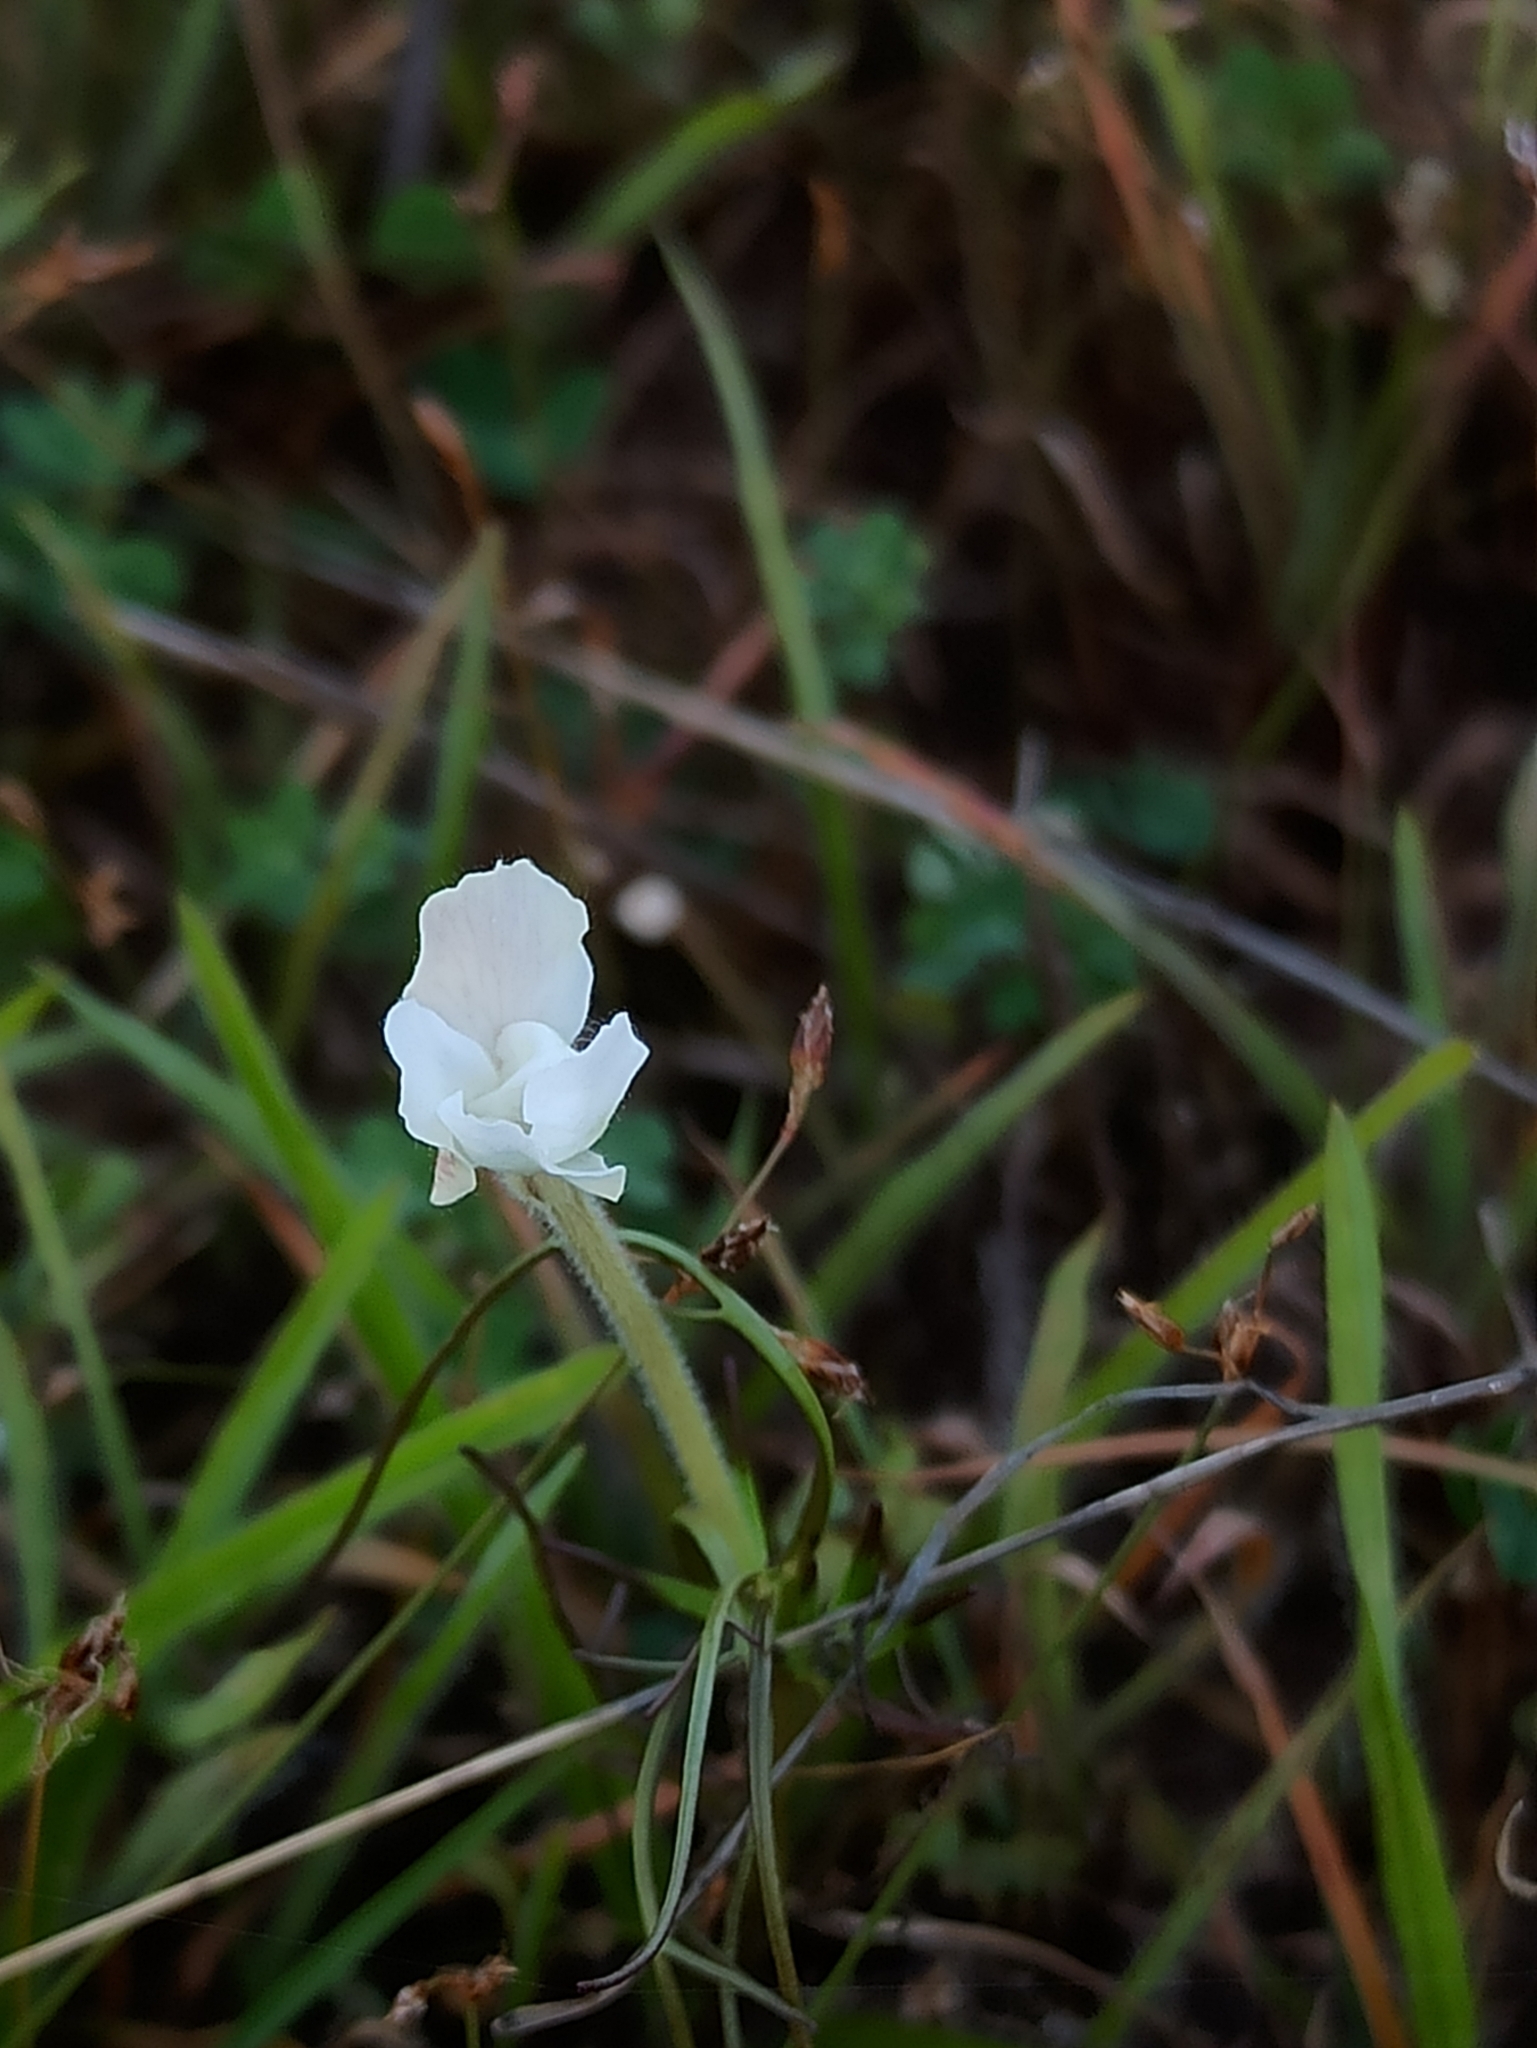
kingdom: Plantae
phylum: Tracheophyta
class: Magnoliopsida
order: Lamiales
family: Orobanchaceae
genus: Rhamphicarpa
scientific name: Rhamphicarpa elongata
